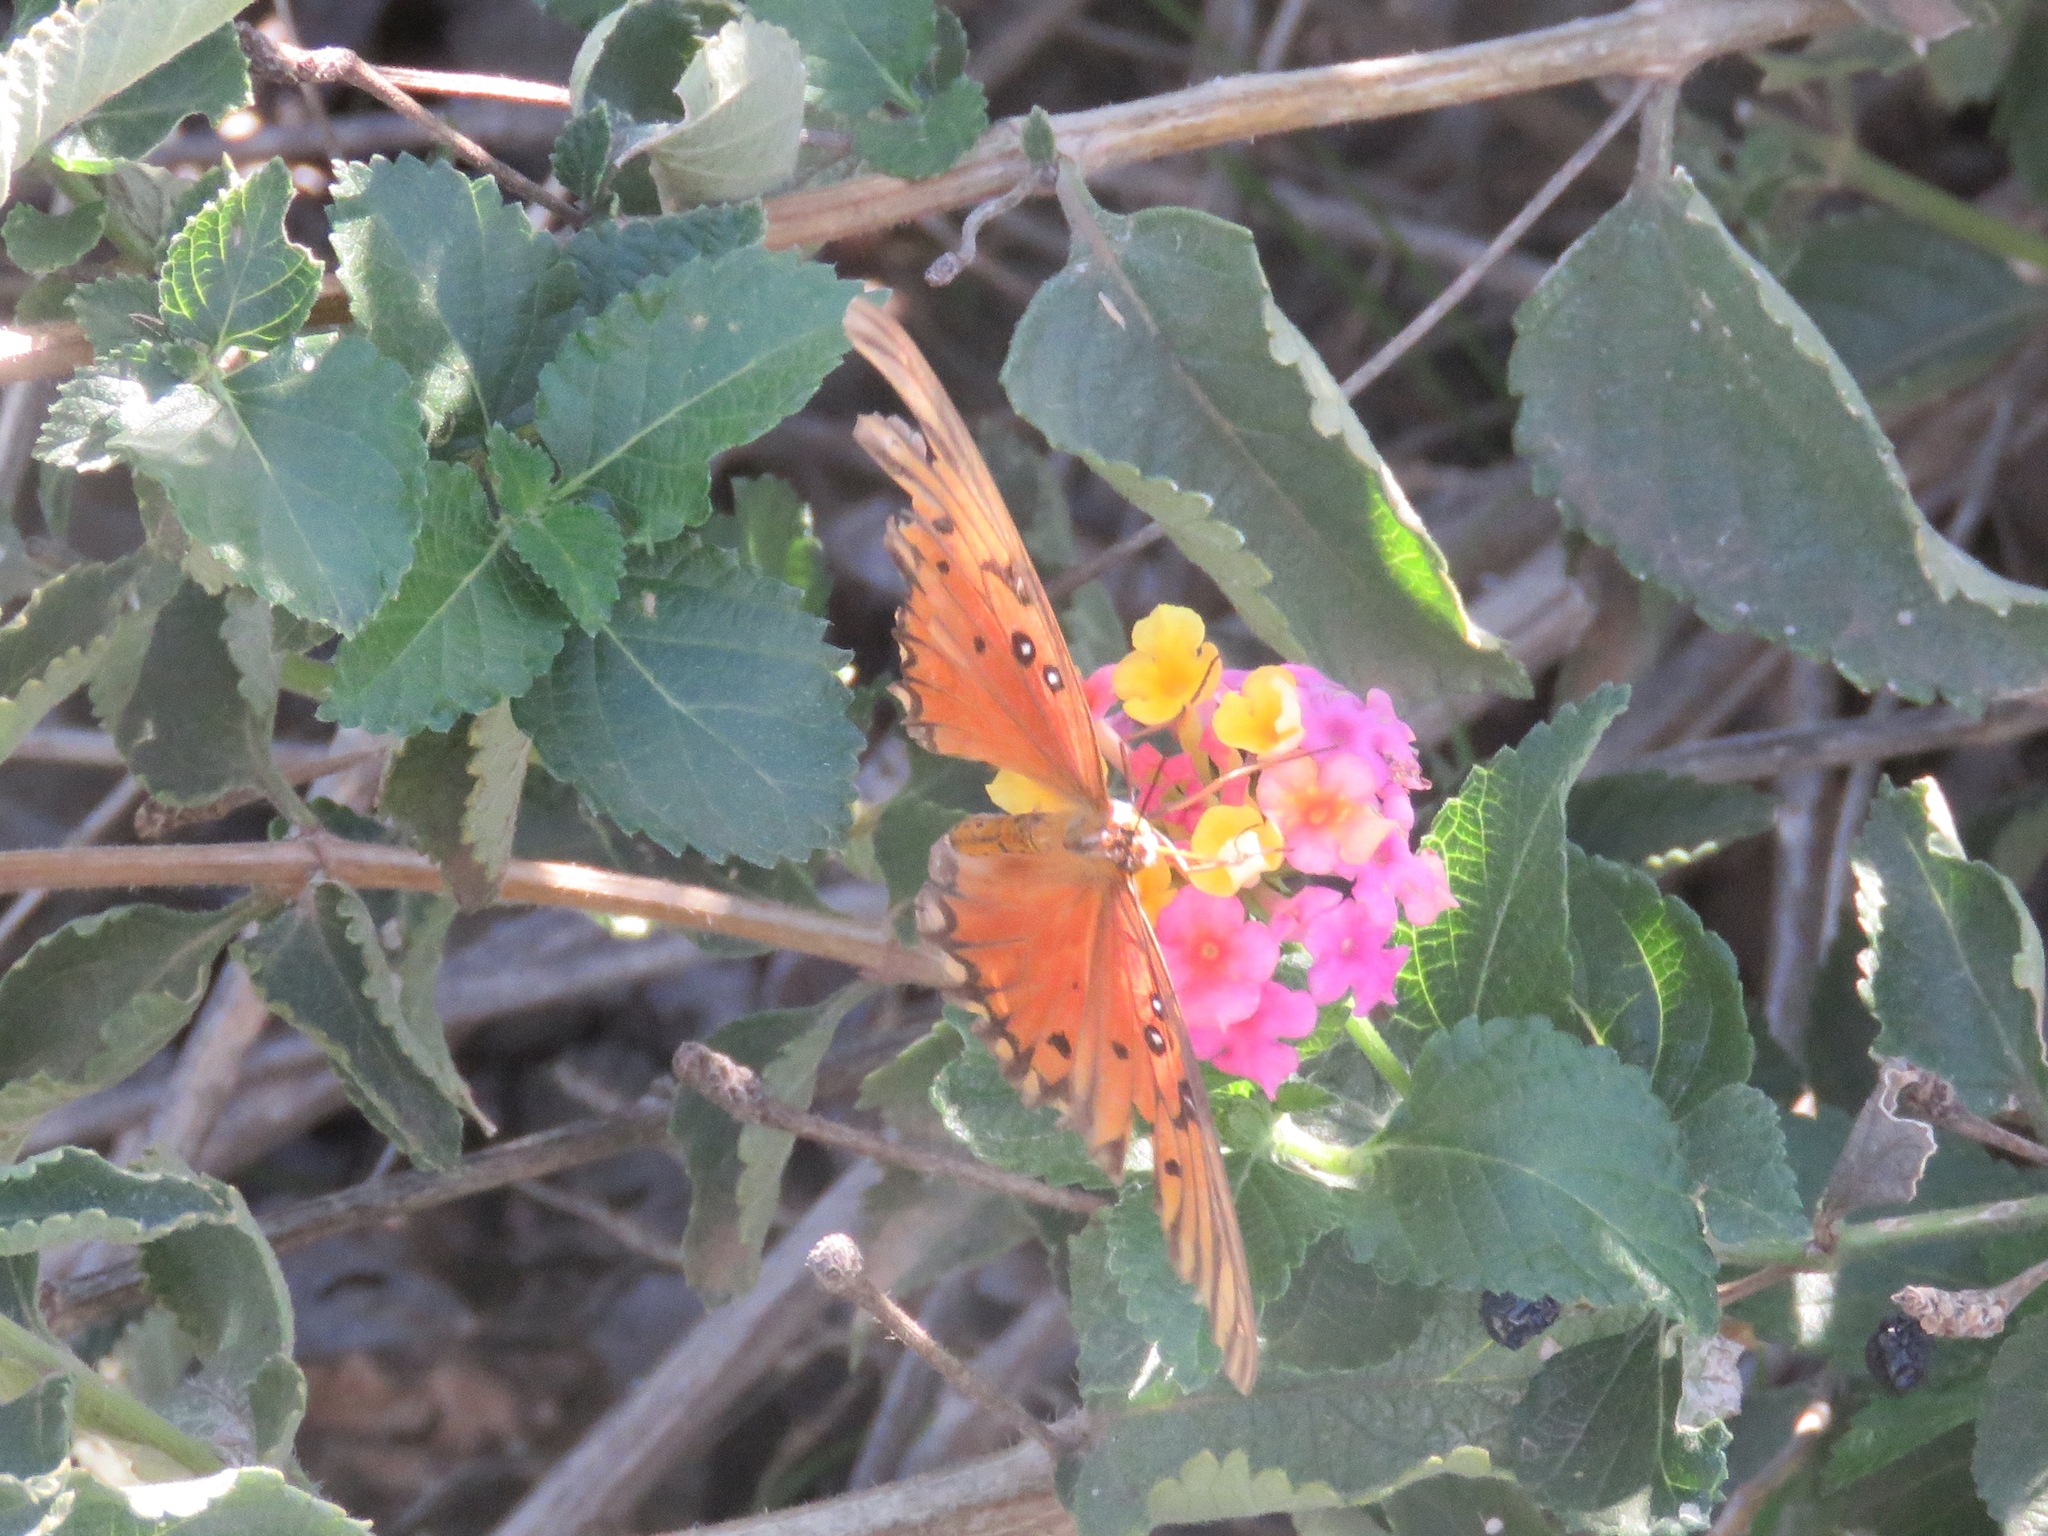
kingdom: Animalia
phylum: Arthropoda
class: Insecta
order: Lepidoptera
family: Nymphalidae
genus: Dione
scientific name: Dione vanillae
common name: Gulf fritillary
